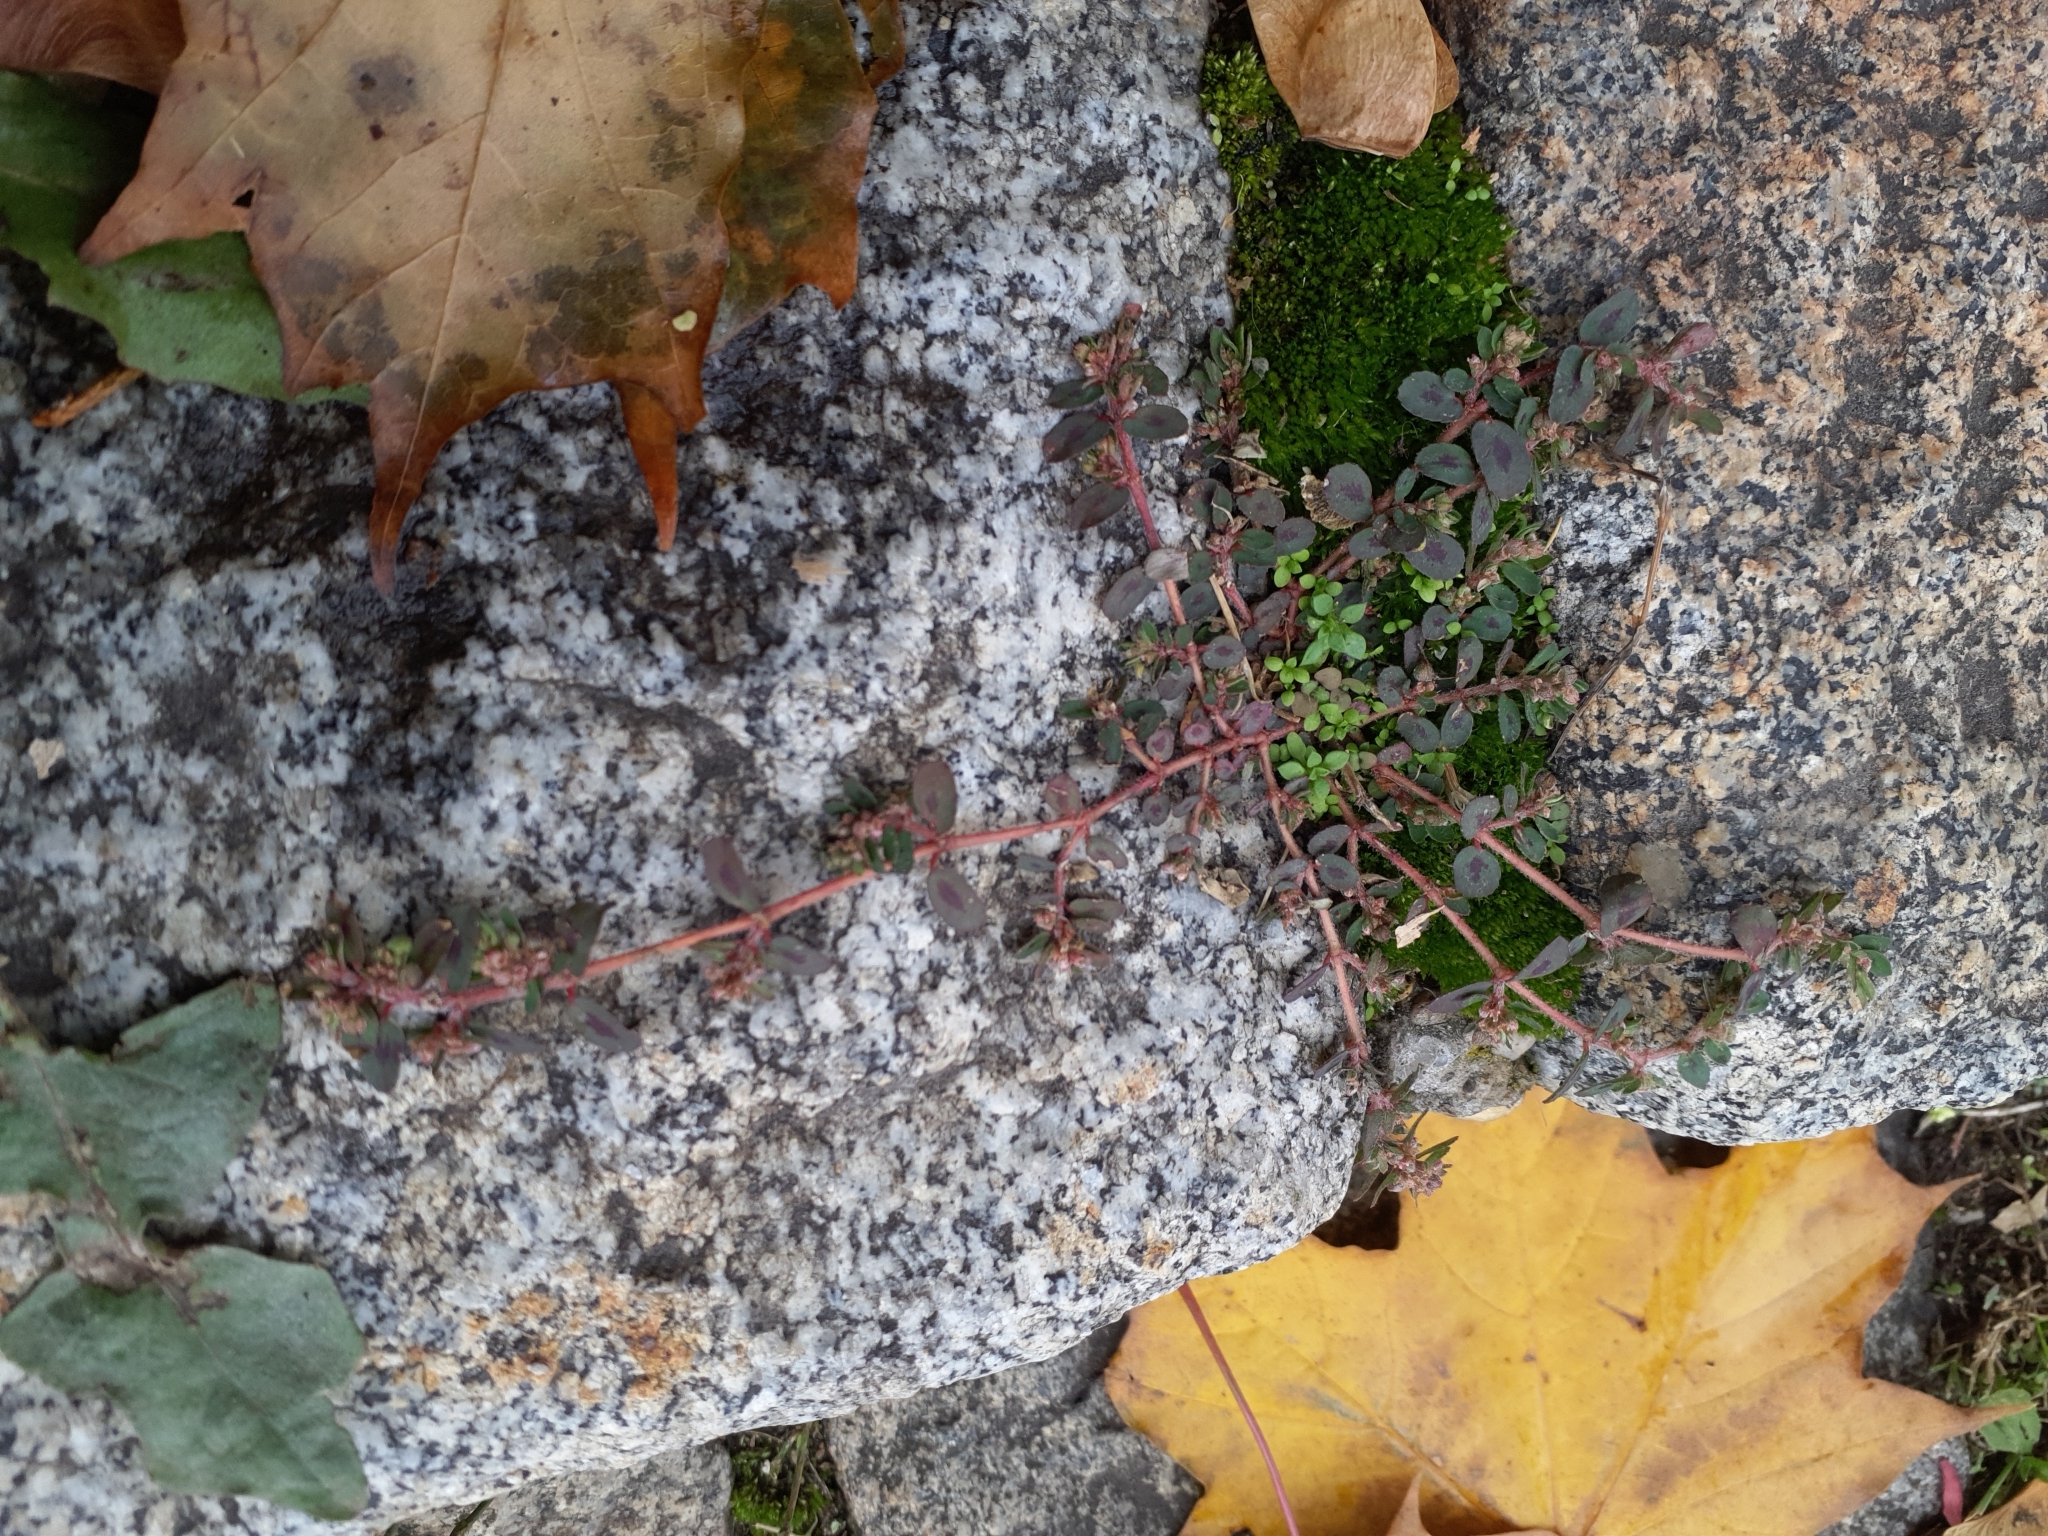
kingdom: Plantae
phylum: Tracheophyta
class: Magnoliopsida
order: Malpighiales
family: Euphorbiaceae
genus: Euphorbia
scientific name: Euphorbia maculata
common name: Spotted spurge
